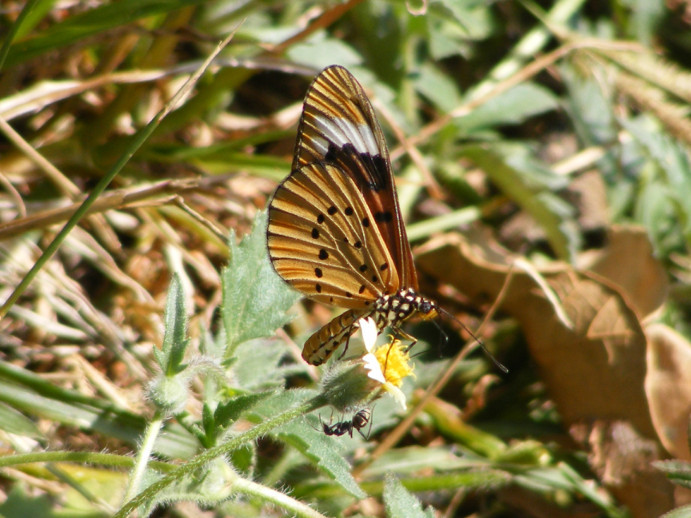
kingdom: Animalia
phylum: Arthropoda
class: Insecta
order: Lepidoptera
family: Nymphalidae
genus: Acraea
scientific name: Acraea Telchinia encedon
